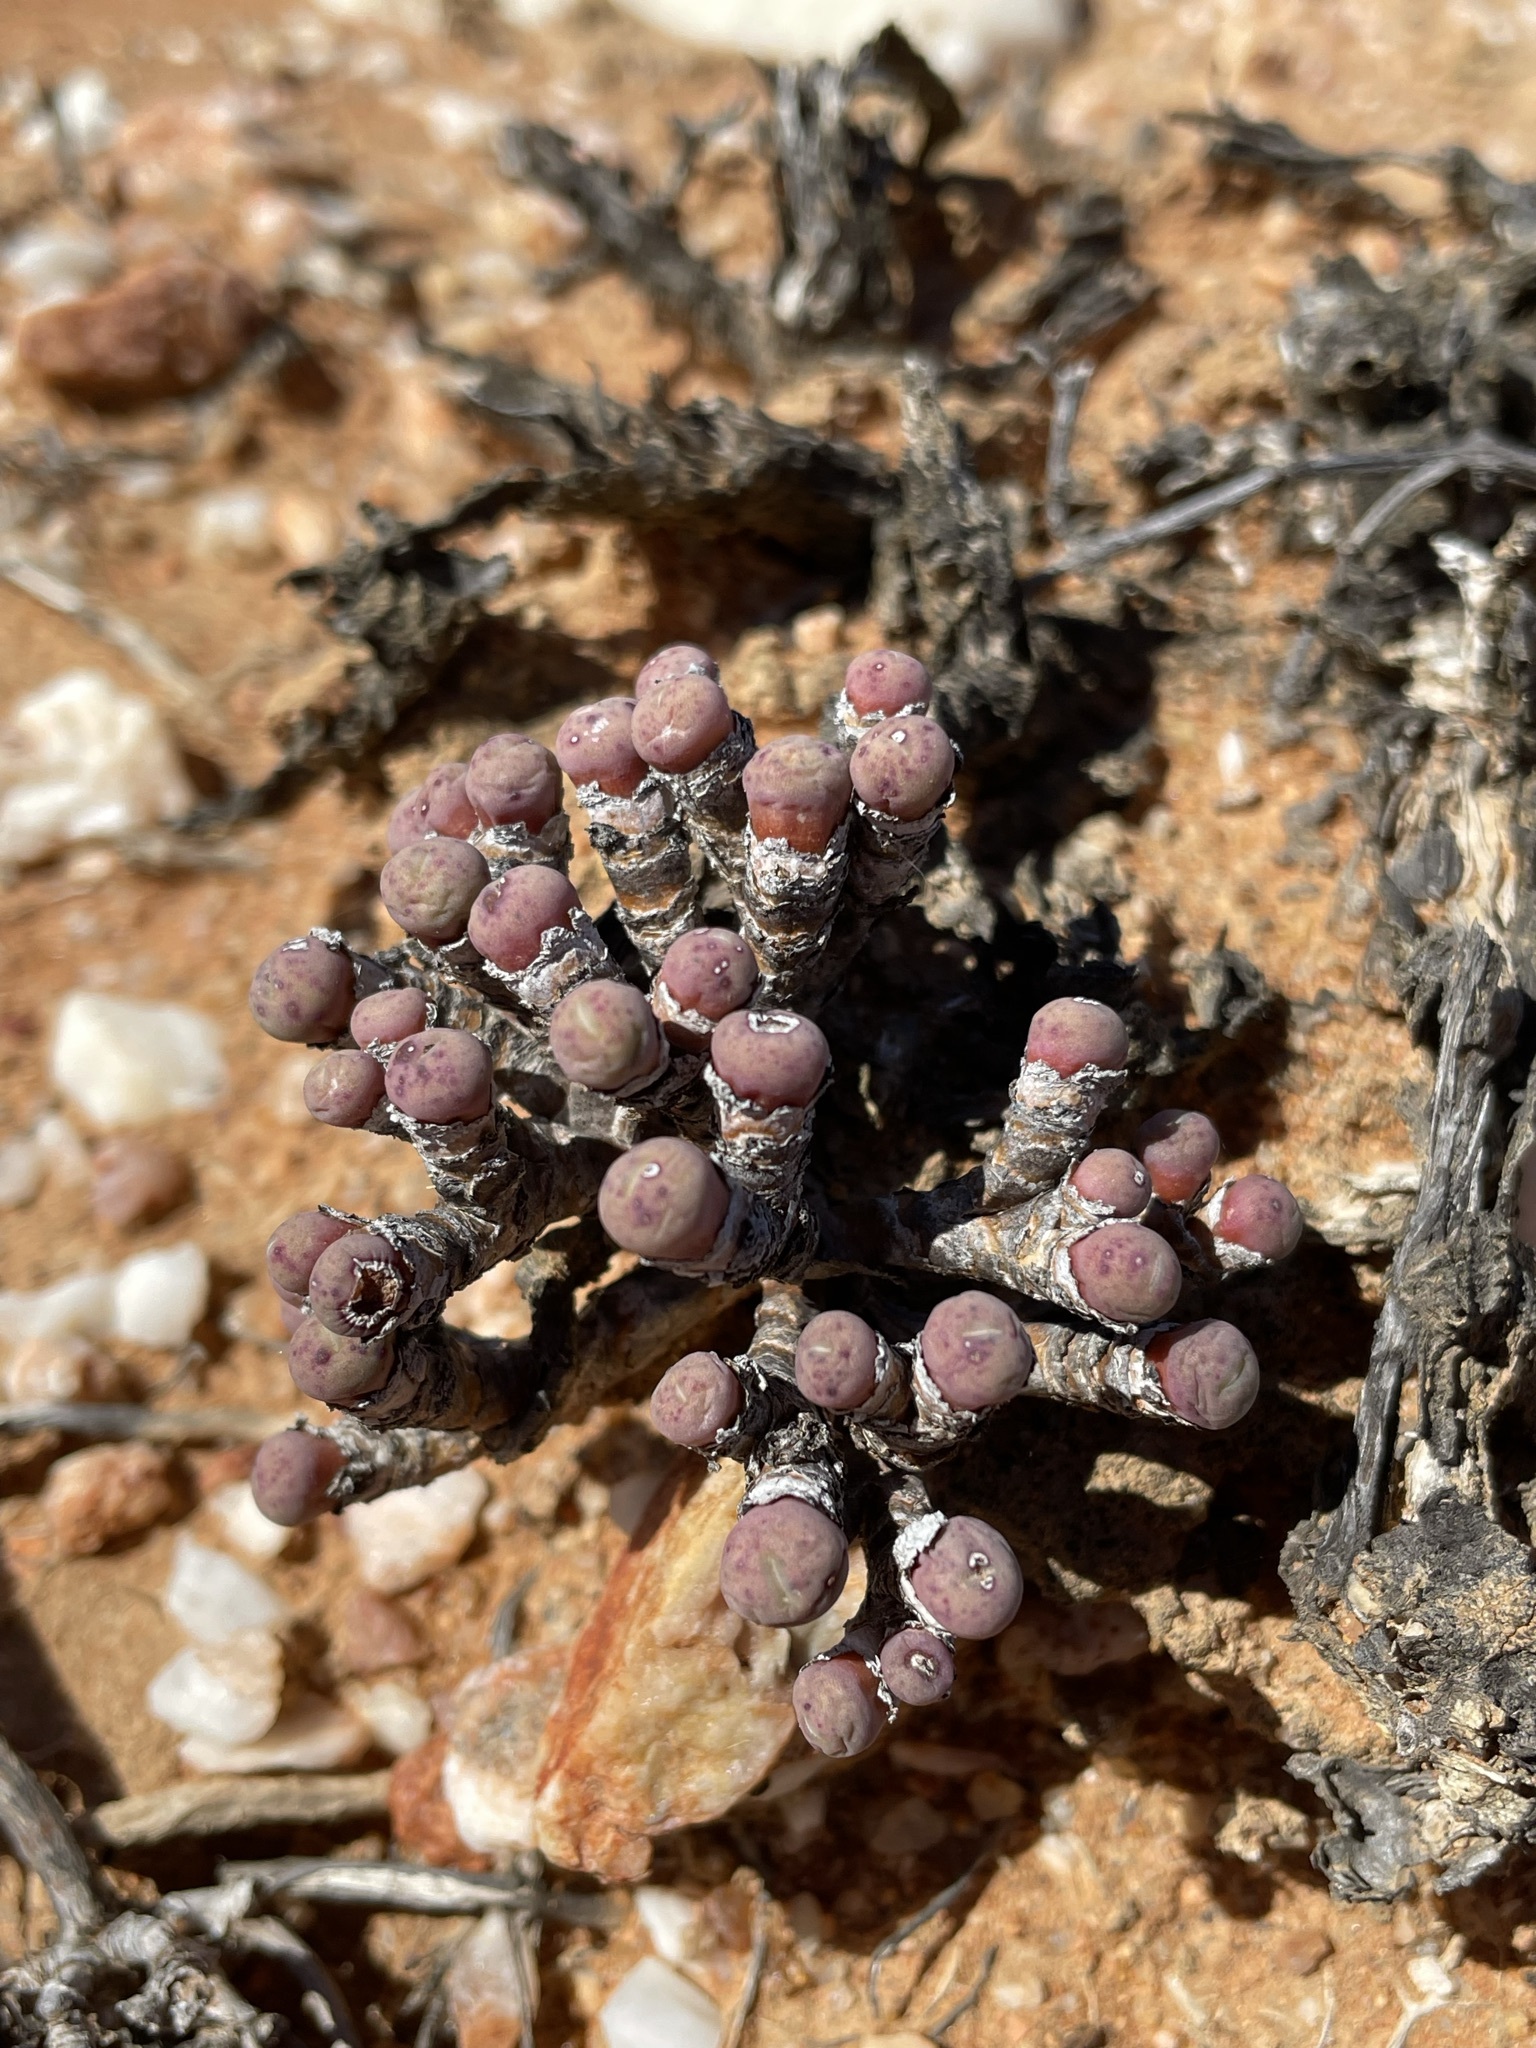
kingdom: Plantae
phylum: Tracheophyta
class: Magnoliopsida
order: Caryophyllales
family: Aizoaceae
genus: Conophytum
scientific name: Conophytum minutum
